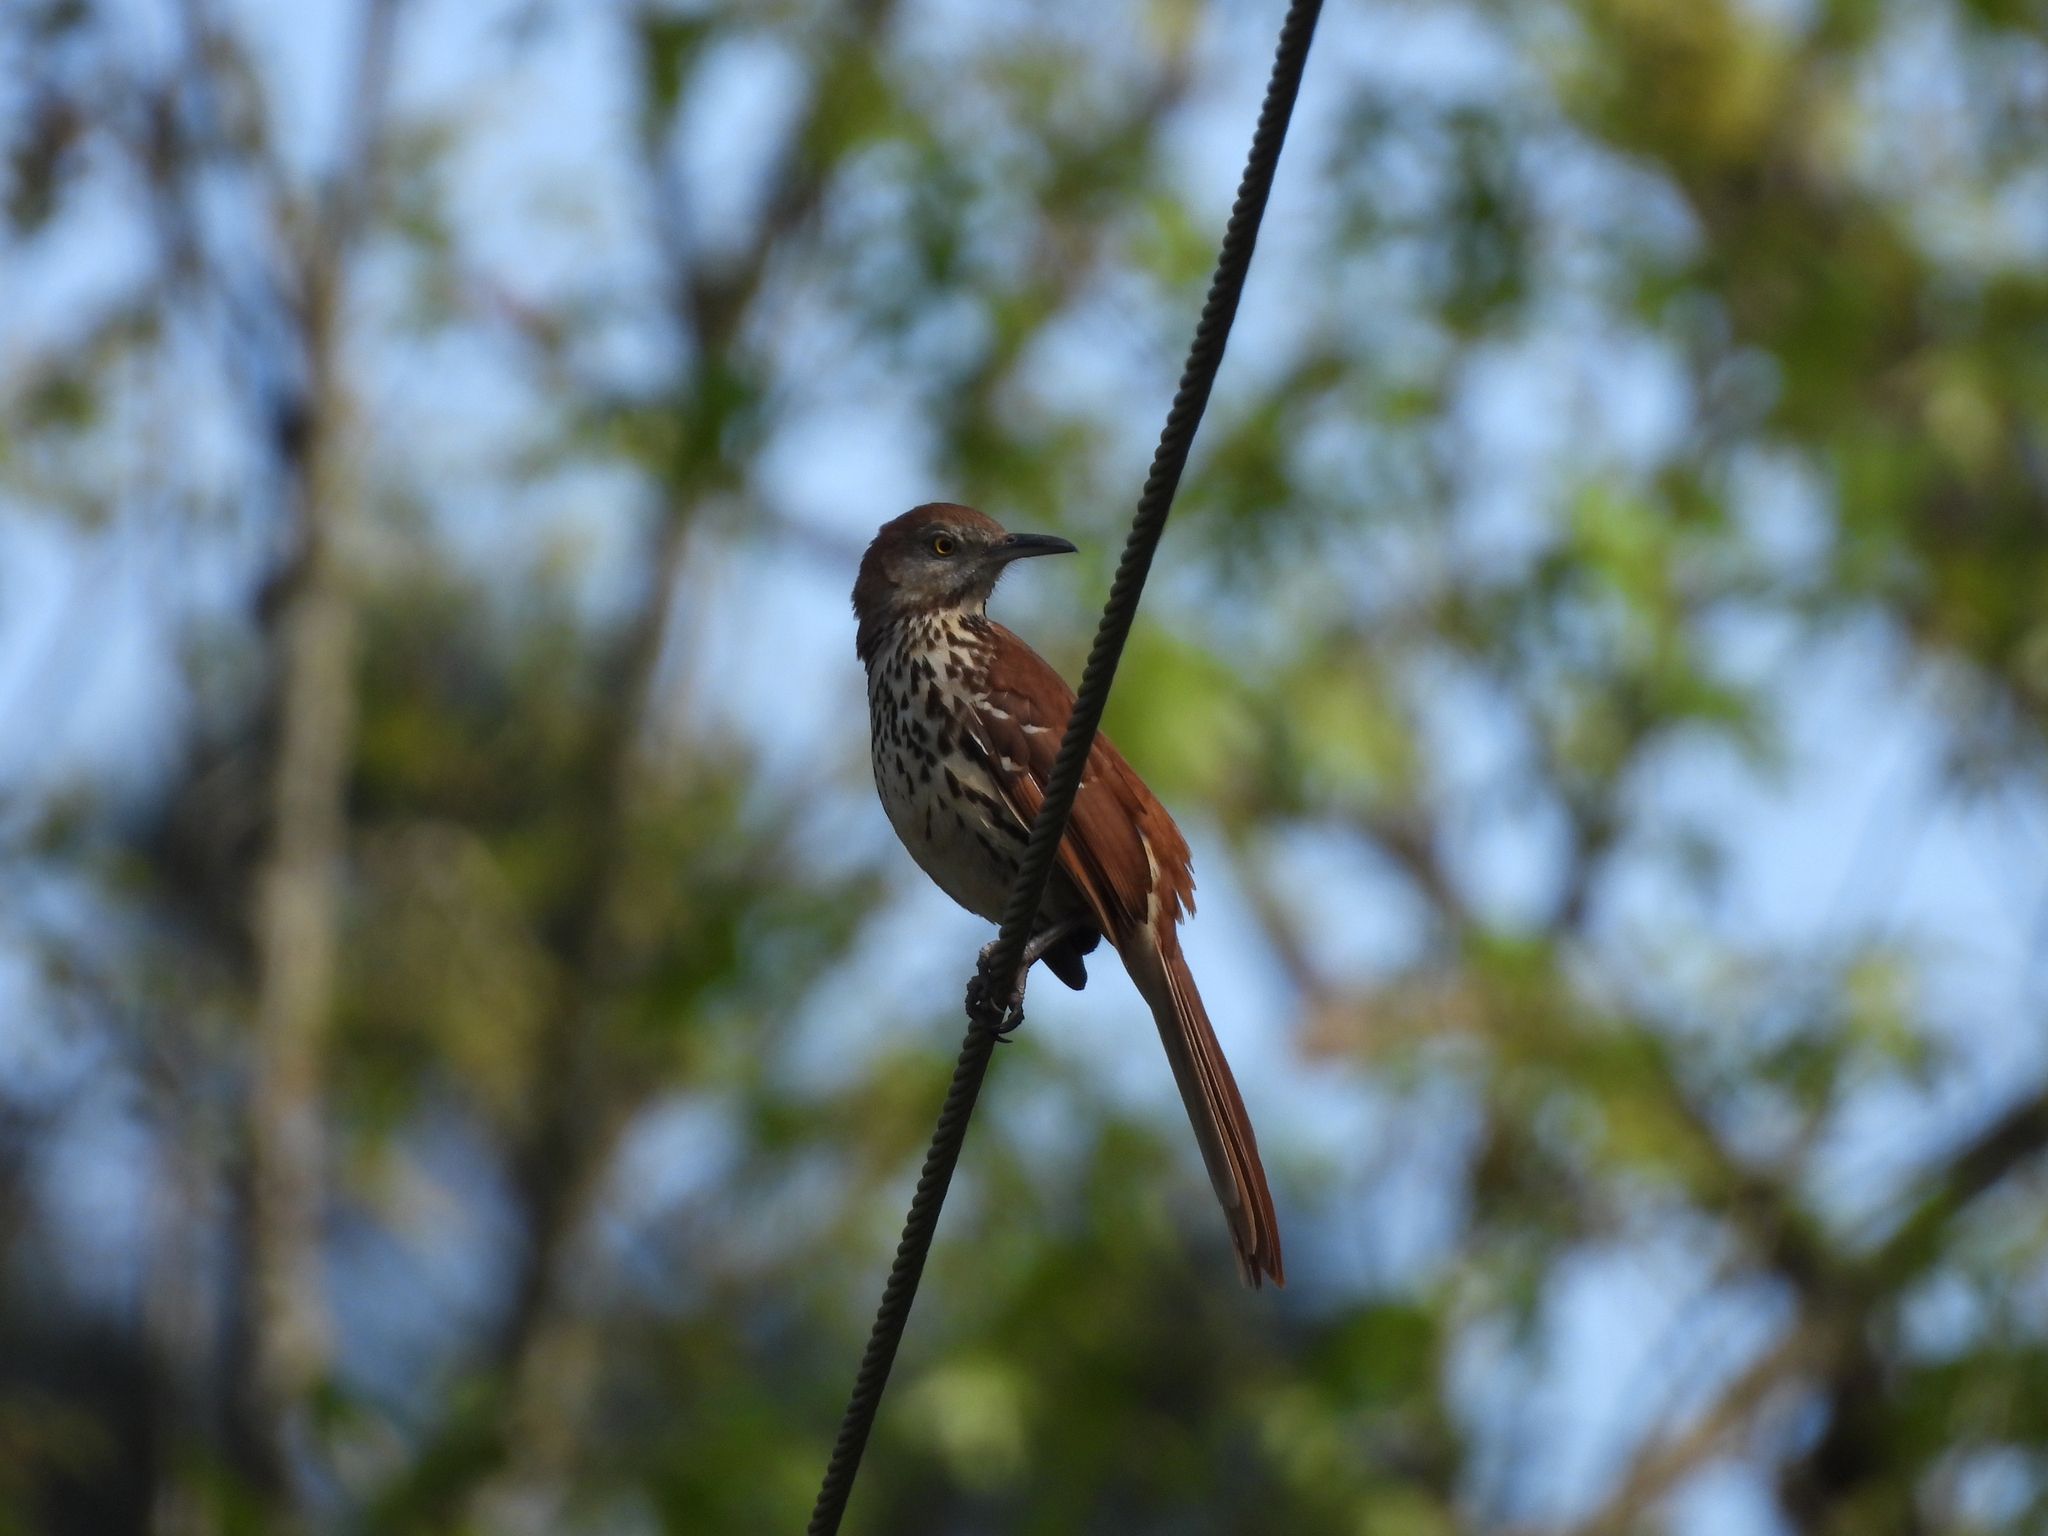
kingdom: Animalia
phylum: Chordata
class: Aves
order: Passeriformes
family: Mimidae
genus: Toxostoma
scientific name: Toxostoma rufum
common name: Brown thrasher
